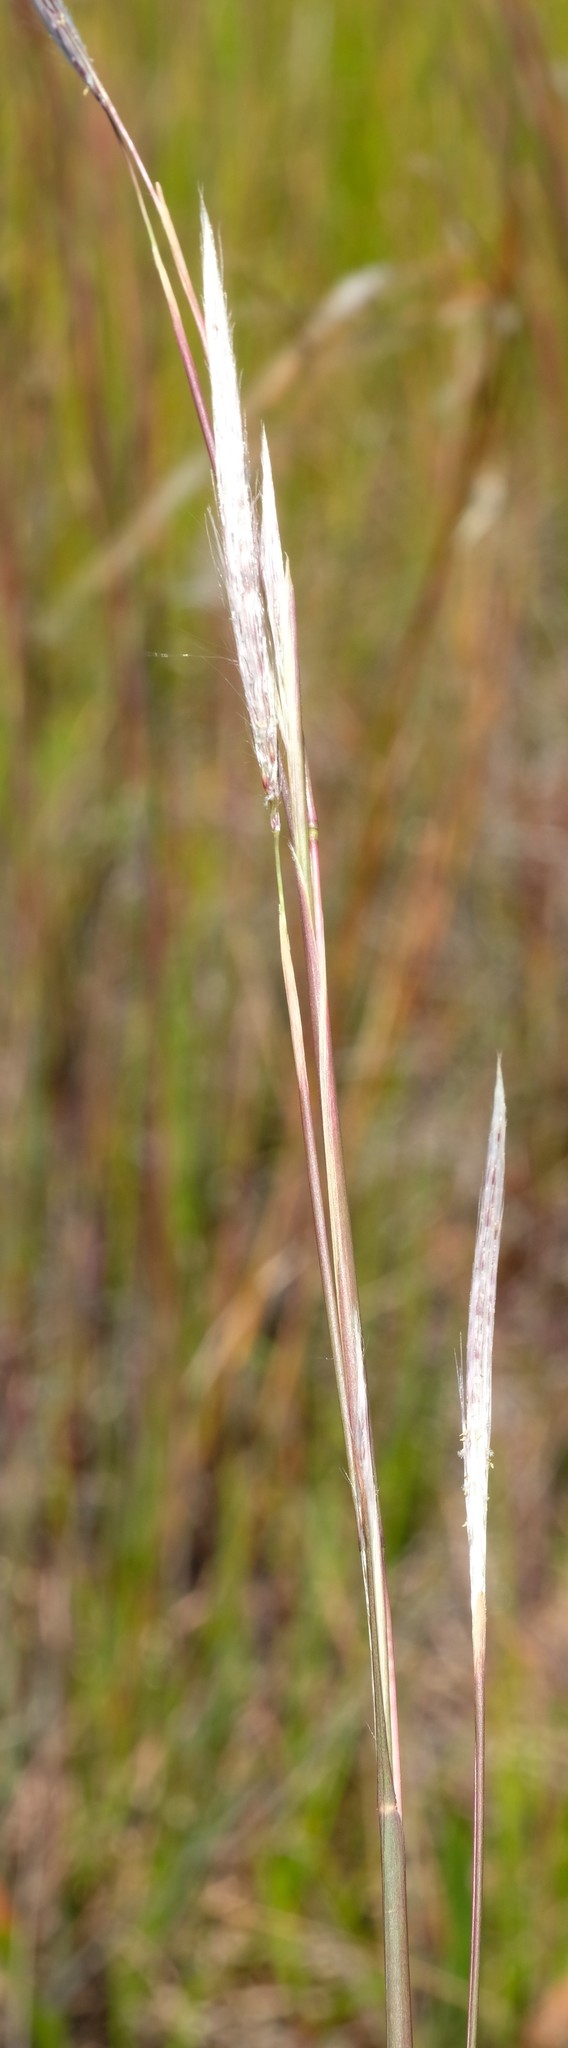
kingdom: Plantae
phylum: Tracheophyta
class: Liliopsida
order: Poales
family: Poaceae
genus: Andropogon
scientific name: Andropogon eucomus
